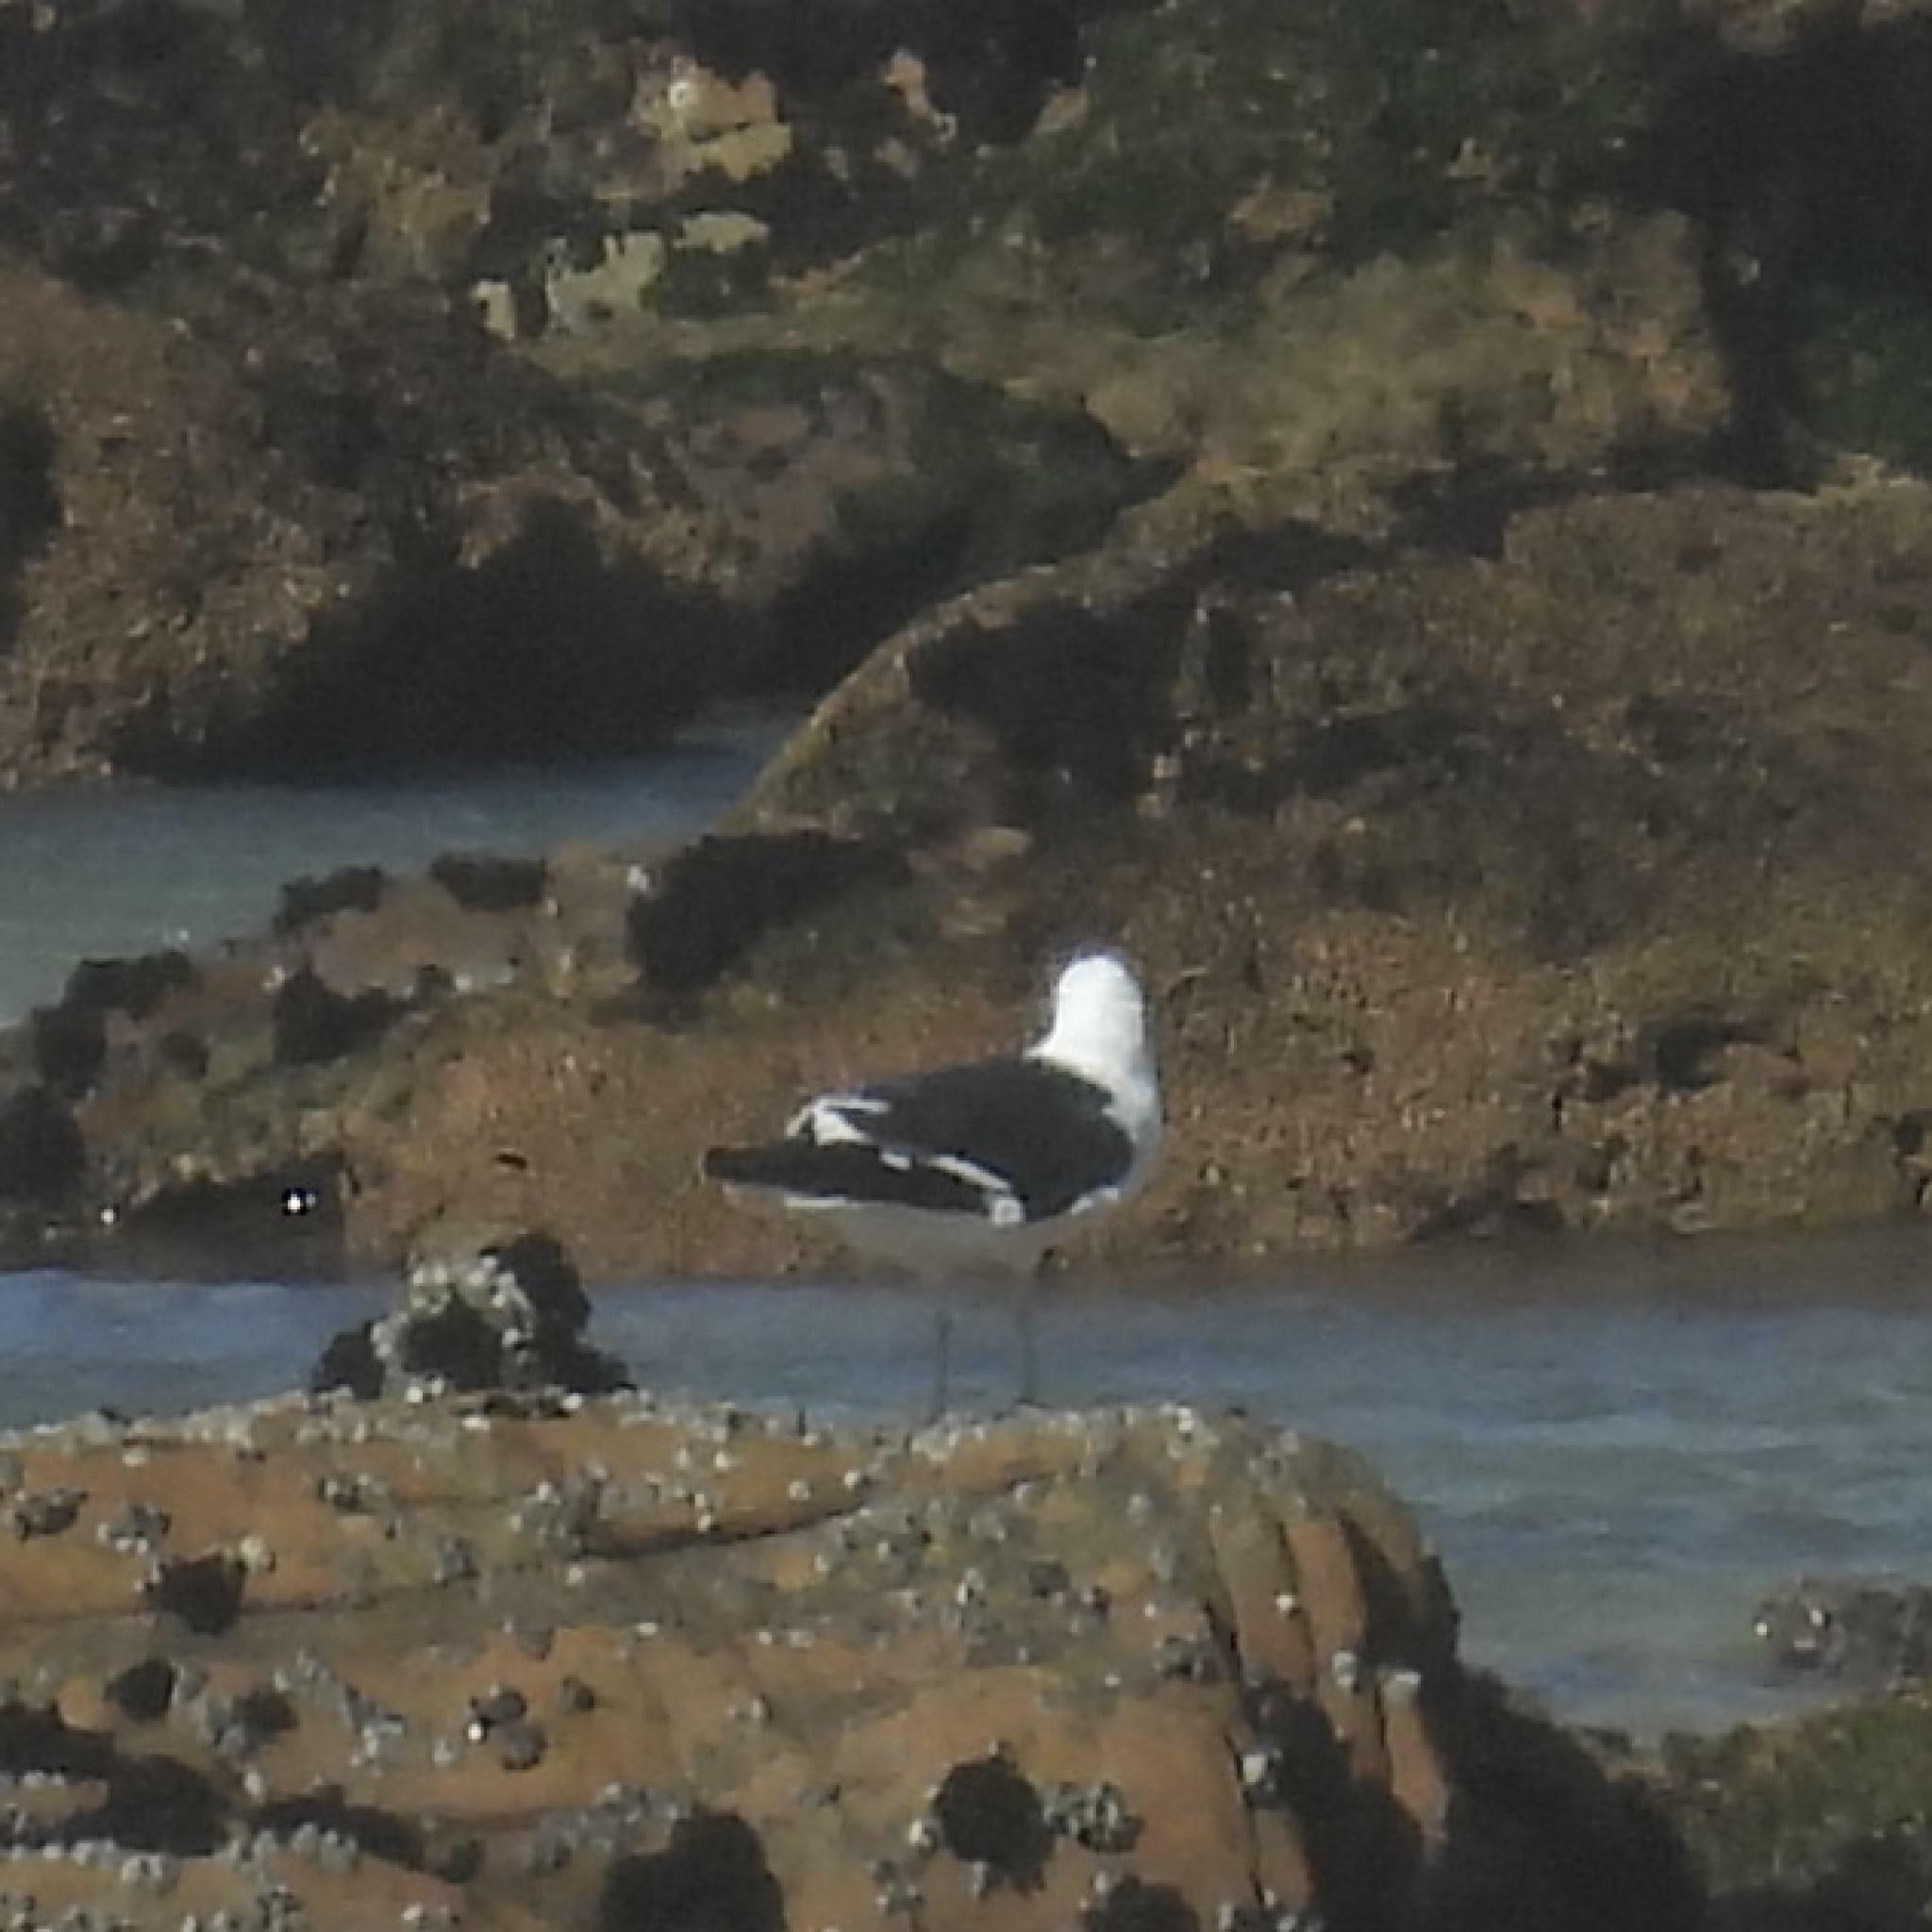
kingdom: Animalia
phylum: Chordata
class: Aves
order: Charadriiformes
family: Laridae
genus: Larus
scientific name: Larus dominicanus
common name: Kelp gull
